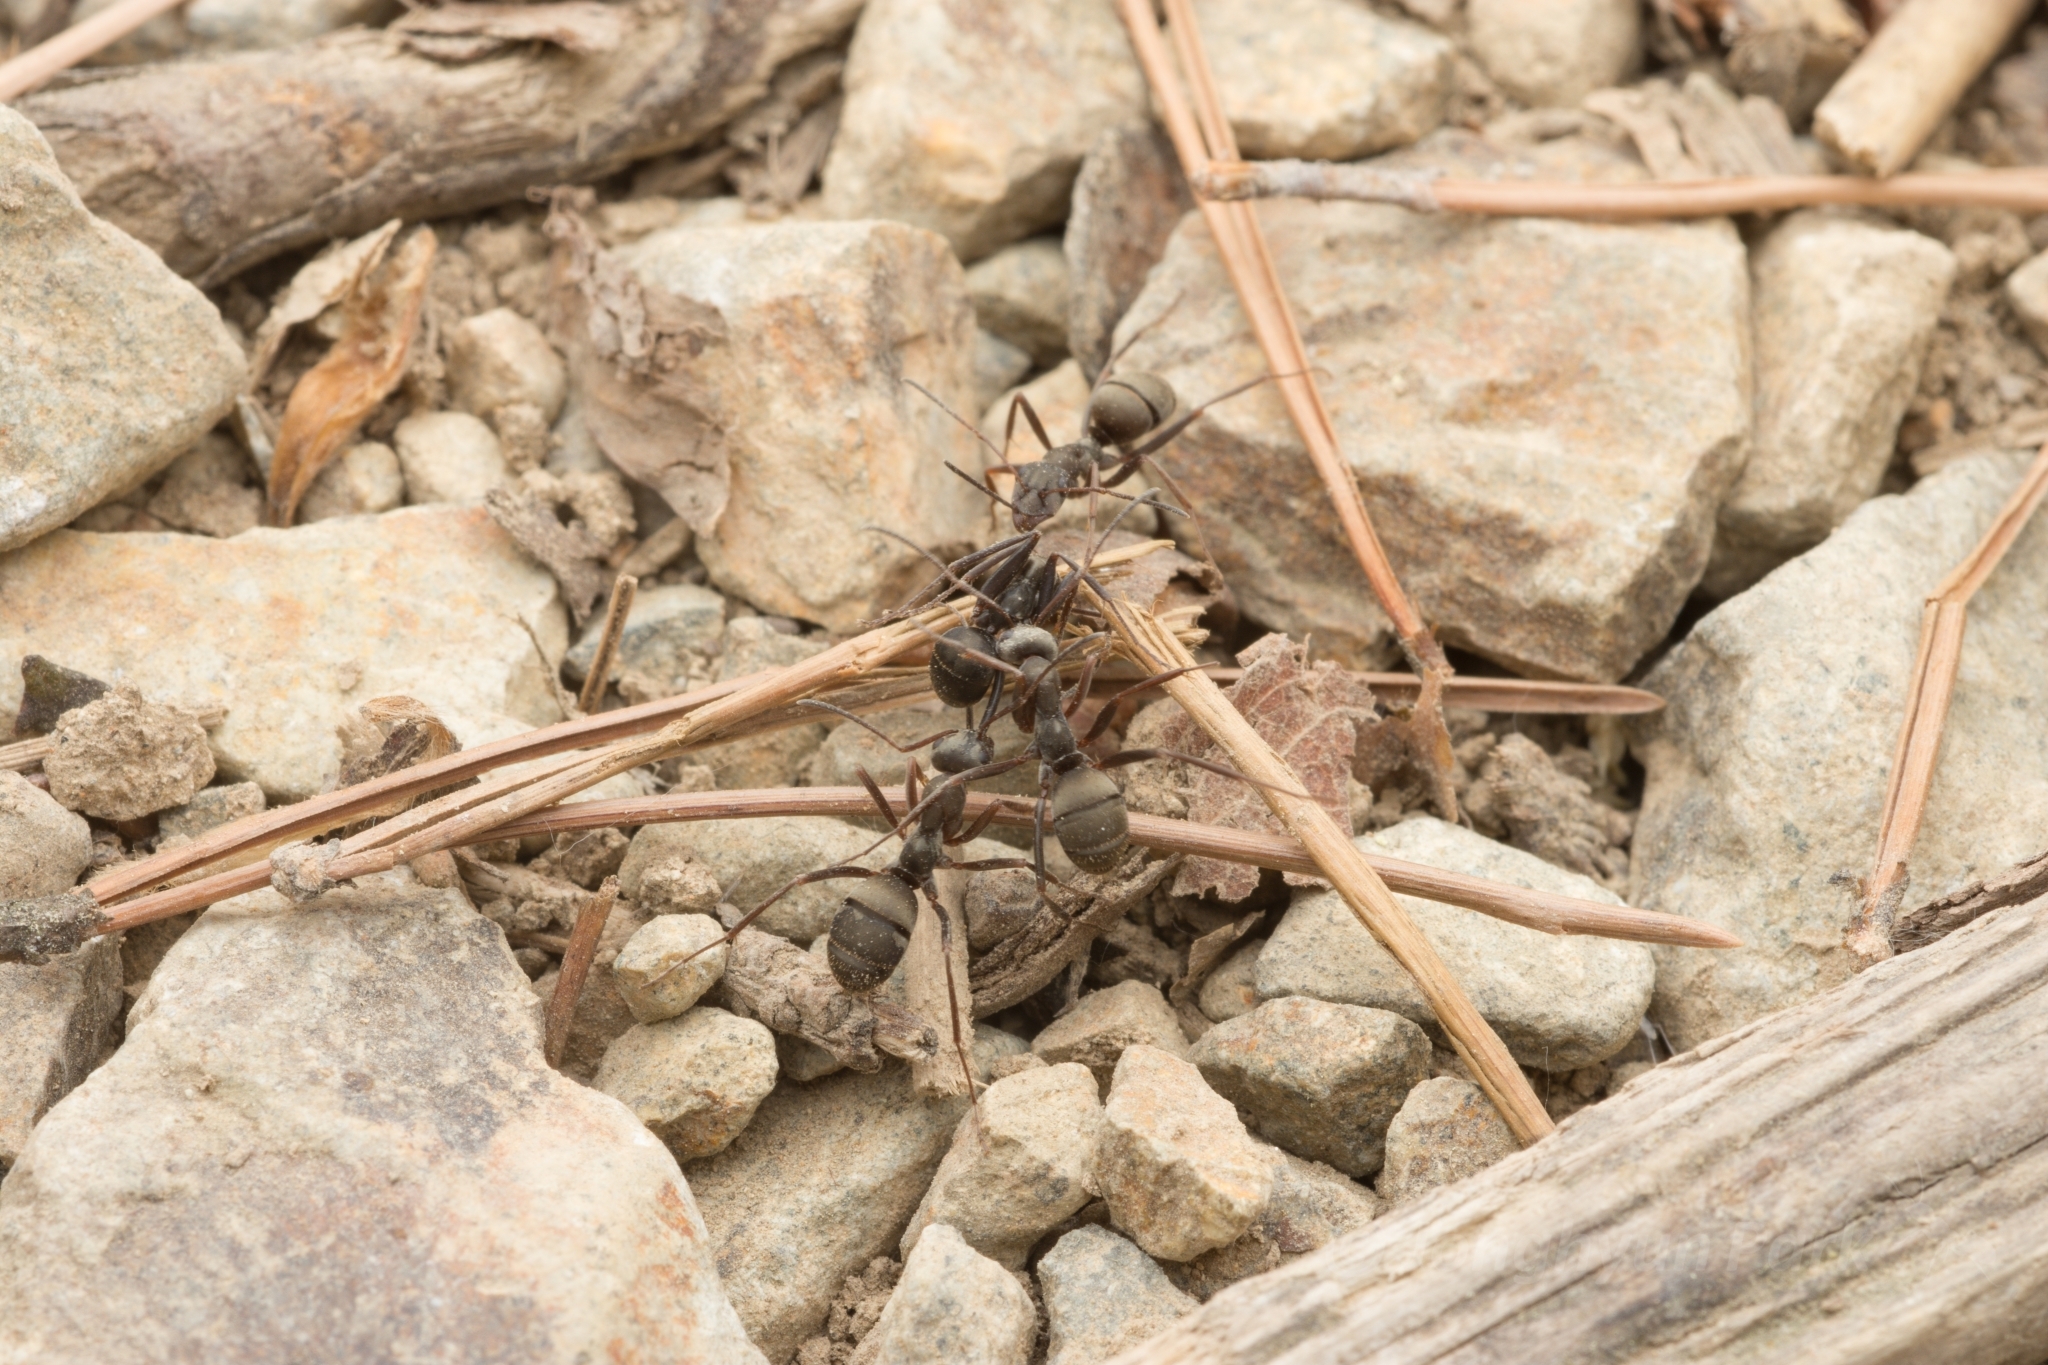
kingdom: Animalia
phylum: Arthropoda
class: Insecta
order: Hymenoptera
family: Formicidae
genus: Formica
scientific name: Formica japonica
